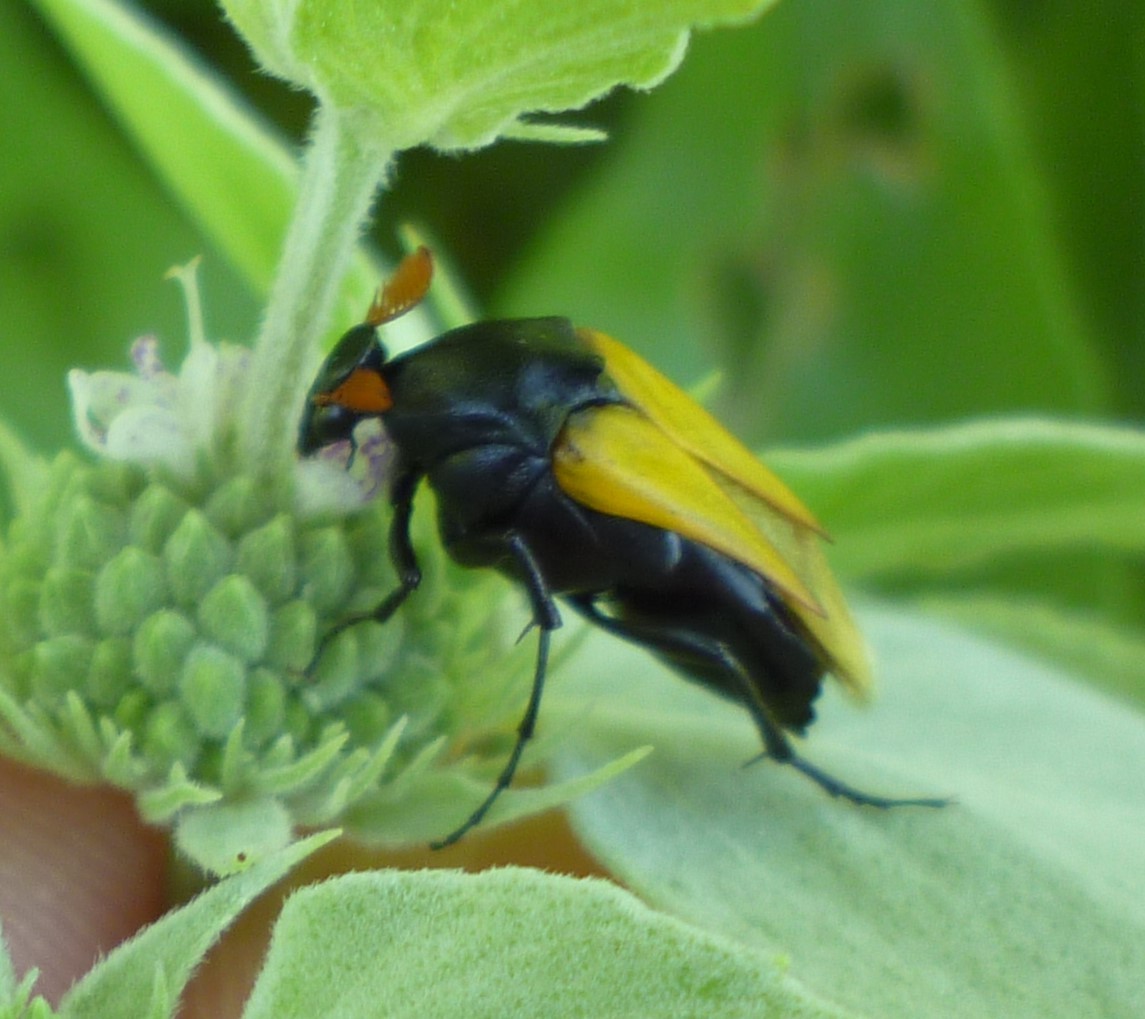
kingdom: Animalia
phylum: Arthropoda
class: Insecta
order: Coleoptera
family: Ripiphoridae
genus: Macrosiagon
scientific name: Macrosiagon flavipennis
